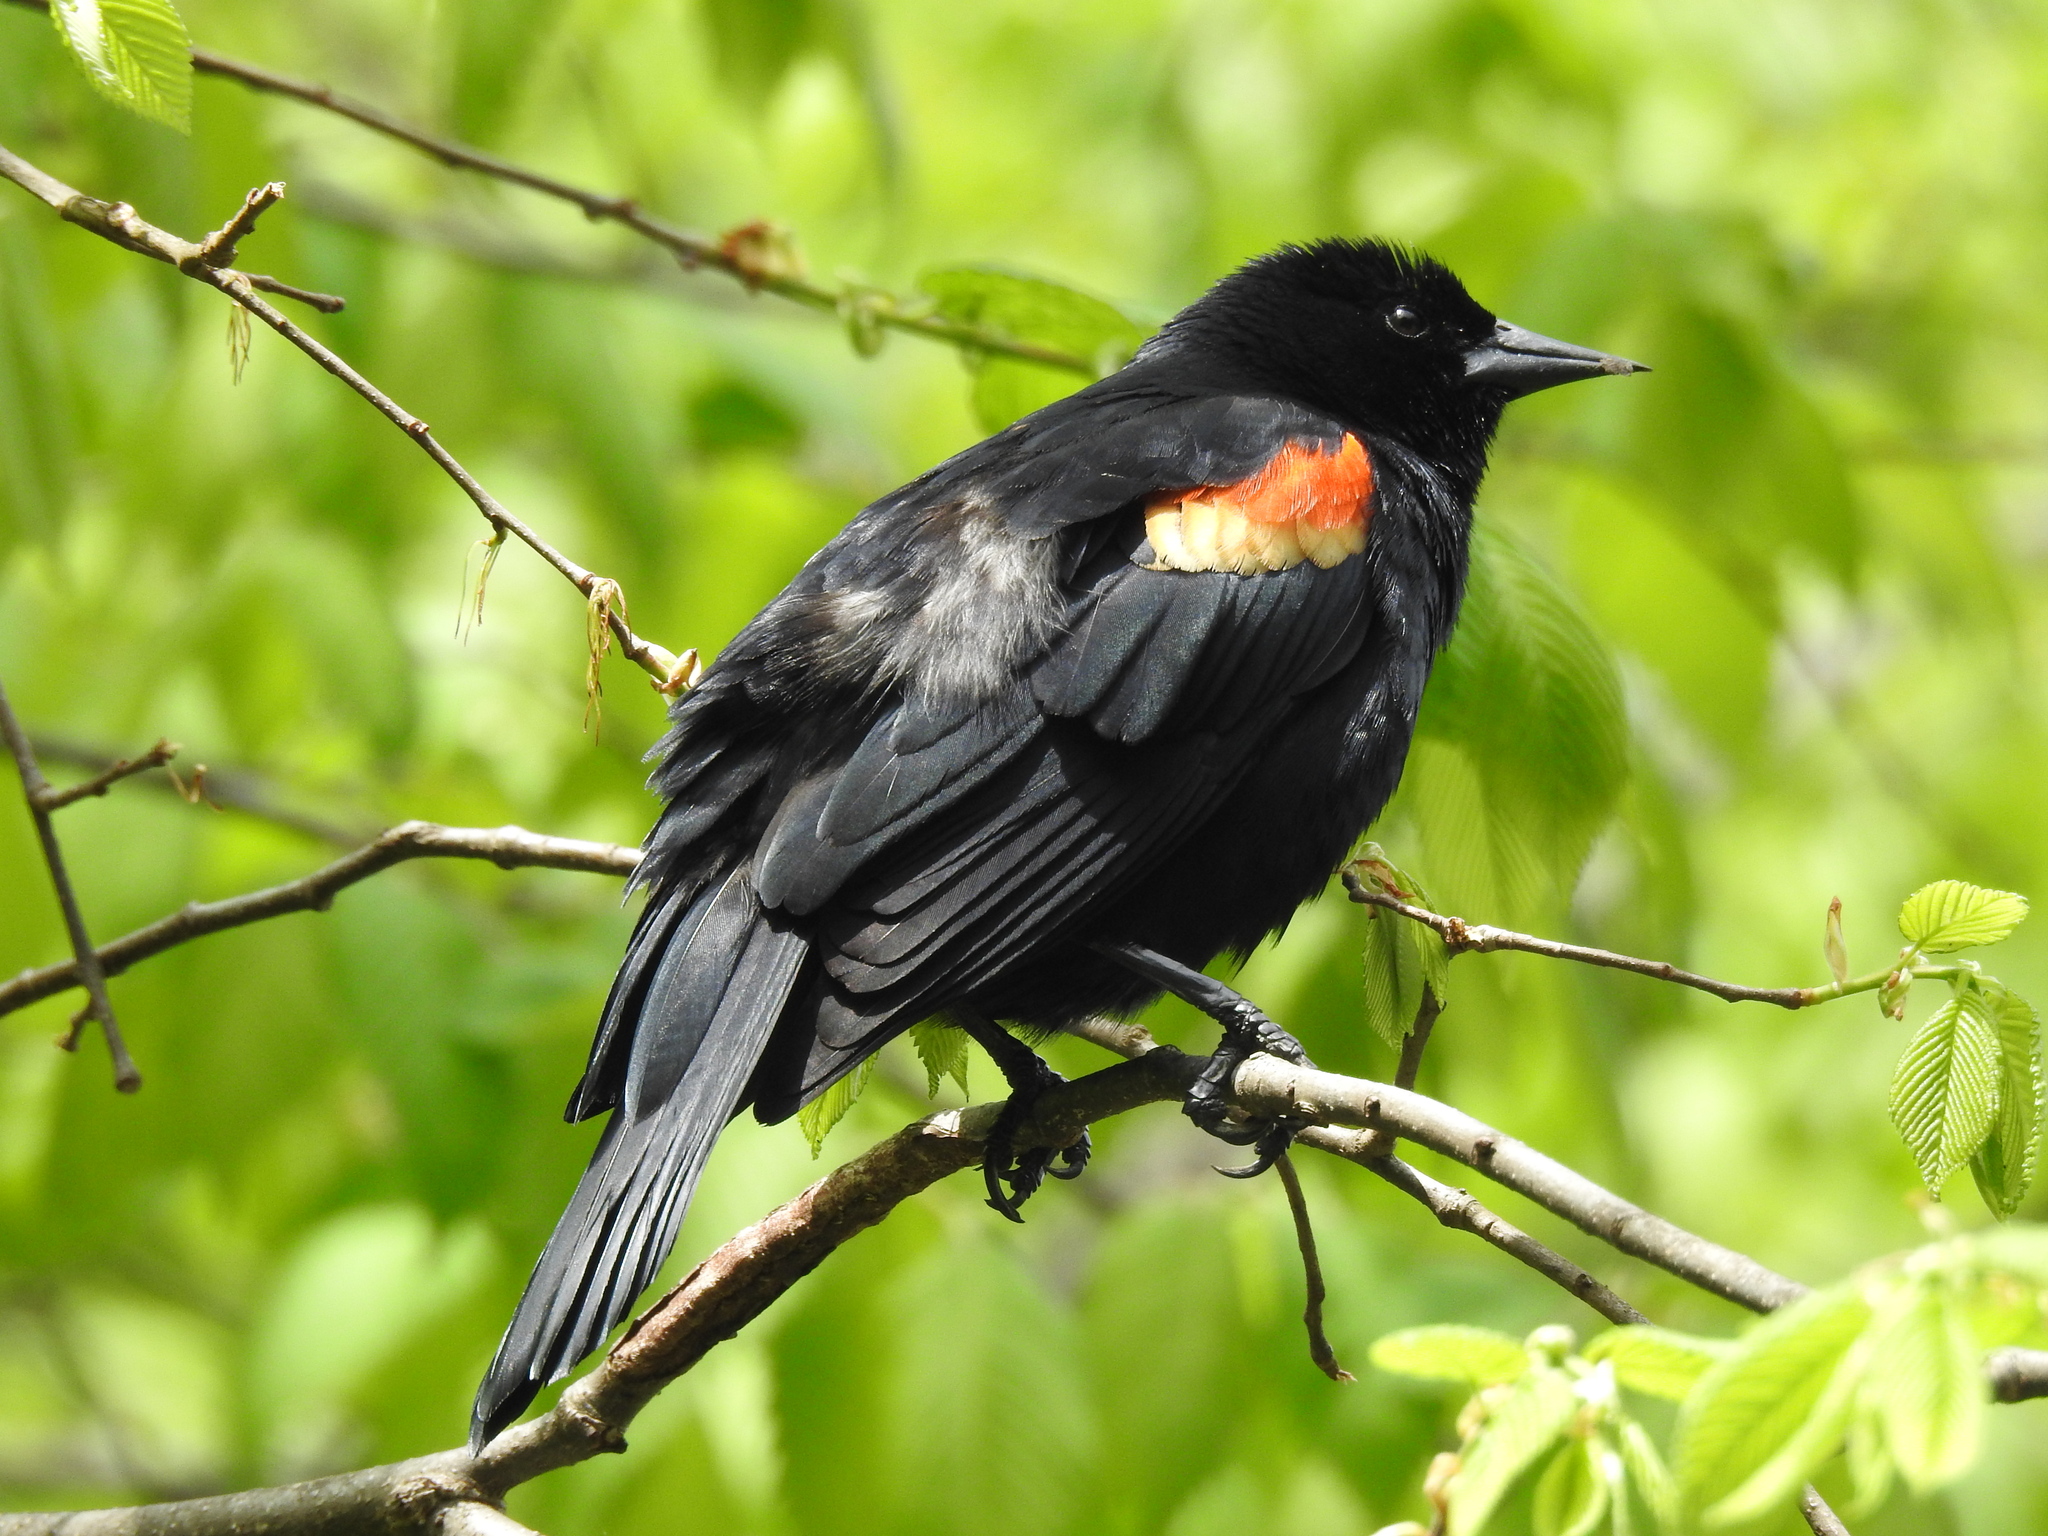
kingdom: Animalia
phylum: Chordata
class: Aves
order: Passeriformes
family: Icteridae
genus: Agelaius
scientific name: Agelaius phoeniceus
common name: Red-winged blackbird
